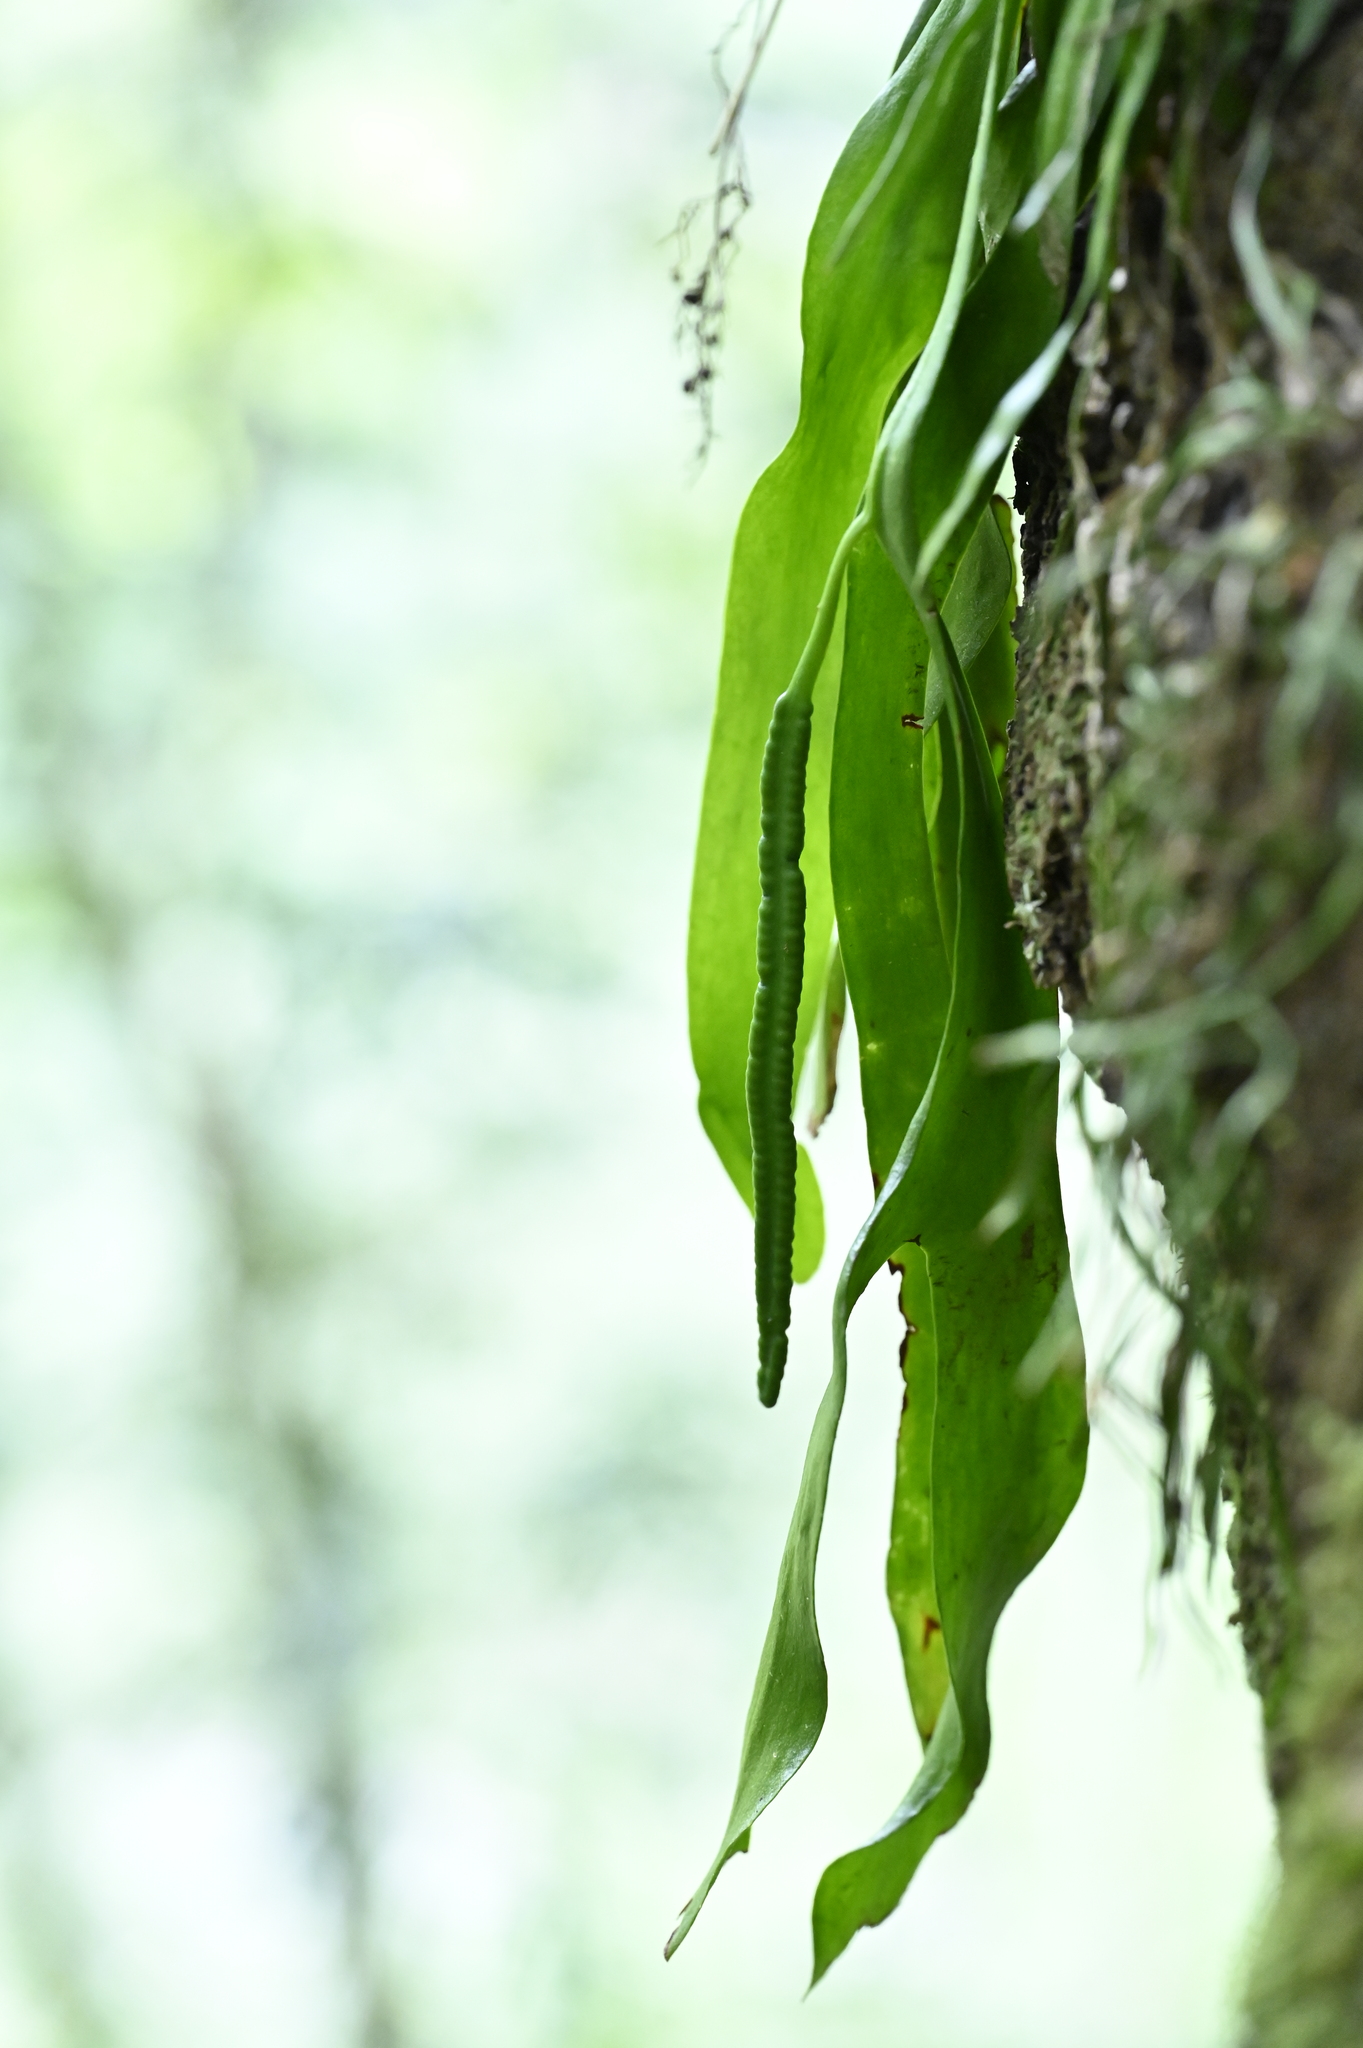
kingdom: Plantae
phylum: Tracheophyta
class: Polypodiopsida
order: Ophioglossales
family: Ophioglossaceae
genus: Ophioderma
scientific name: Ophioderma pendulum
